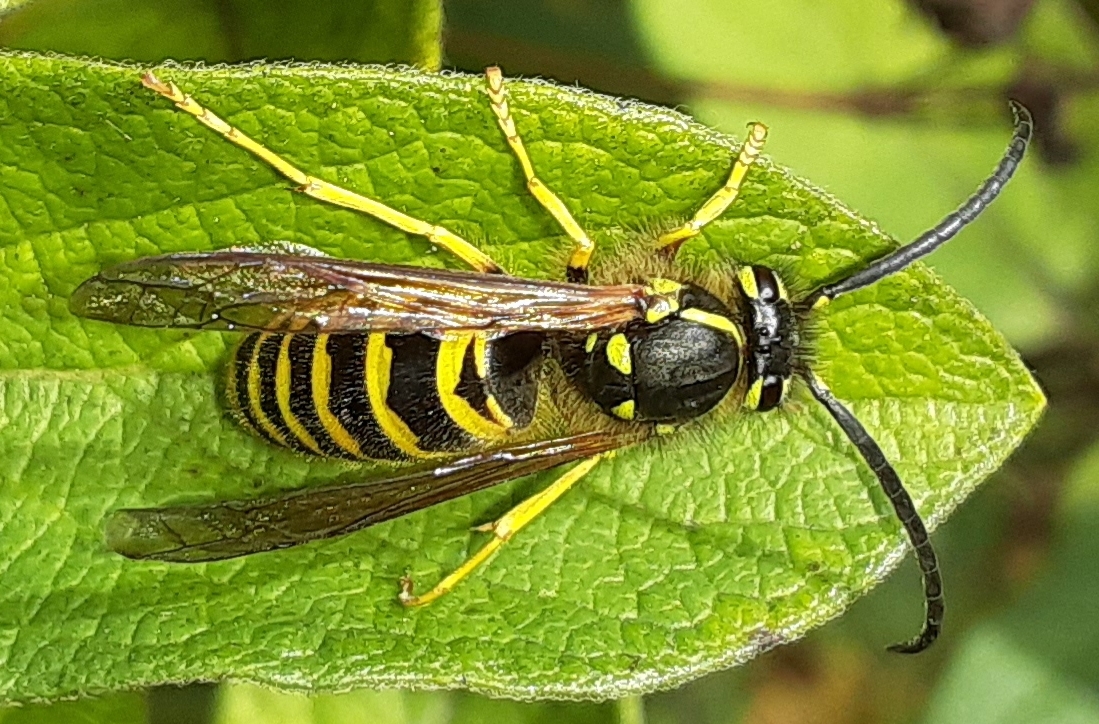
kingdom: Animalia
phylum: Arthropoda
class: Insecta
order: Hymenoptera
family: Vespidae
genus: Vespula
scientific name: Vespula maculifrons
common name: Eastern yellowjacket
